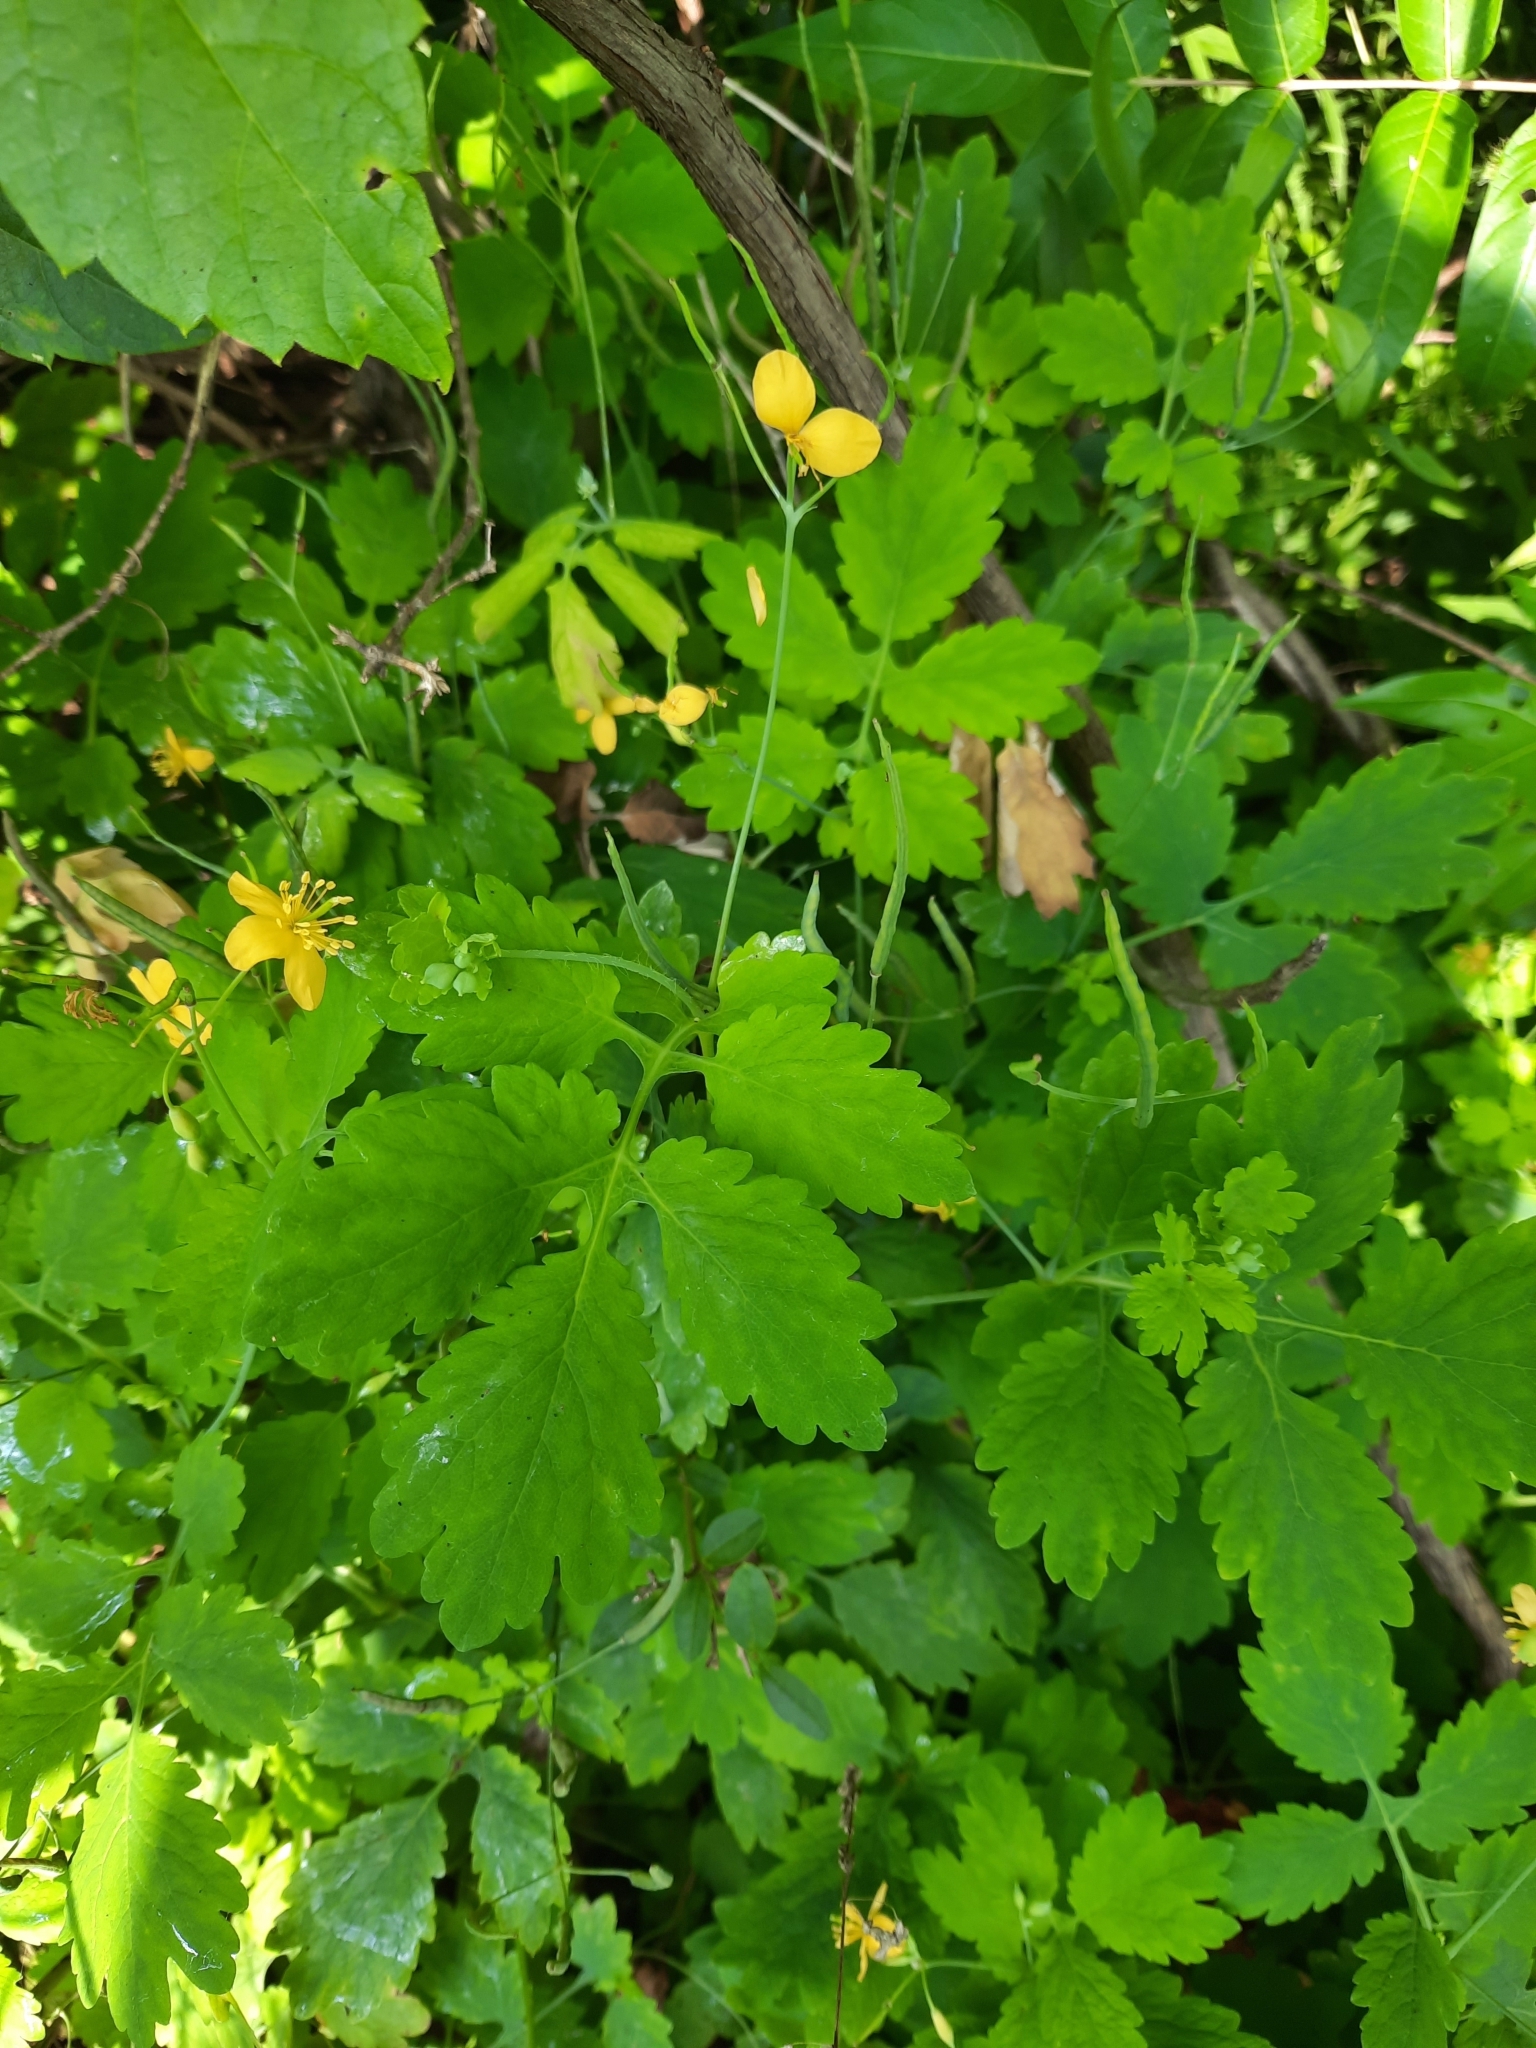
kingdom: Plantae
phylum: Tracheophyta
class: Magnoliopsida
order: Ranunculales
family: Papaveraceae
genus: Chelidonium
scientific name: Chelidonium majus
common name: Greater celandine
